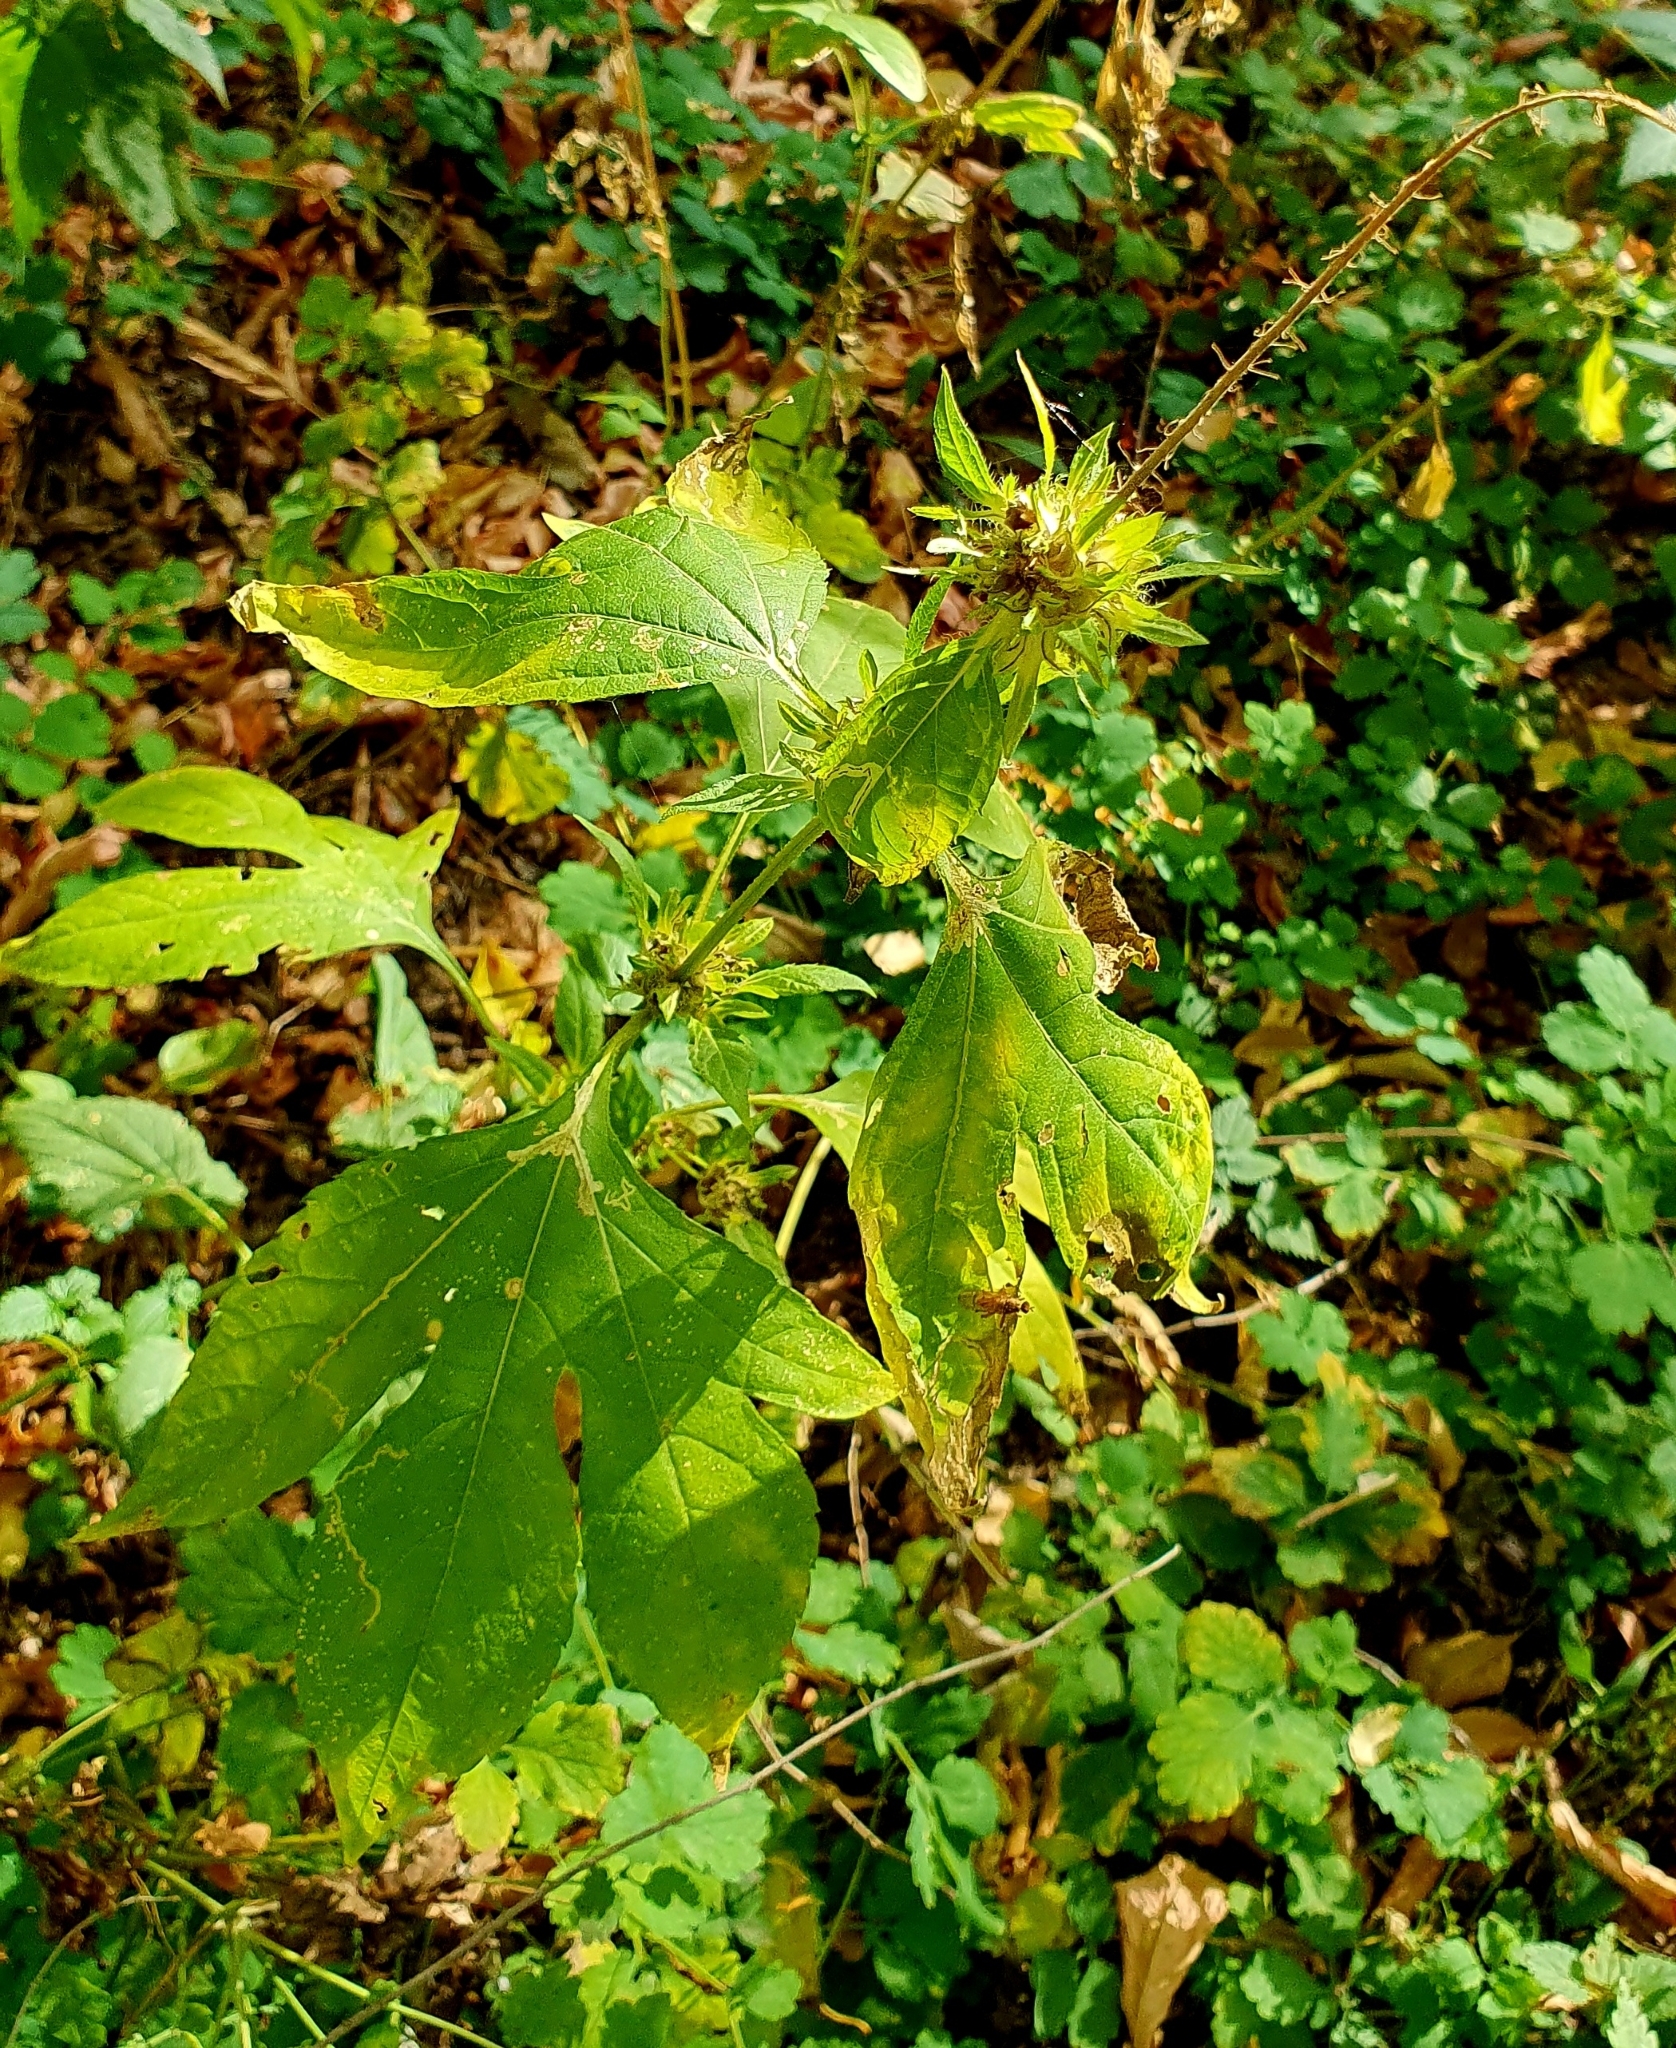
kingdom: Plantae
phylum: Tracheophyta
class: Magnoliopsida
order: Asterales
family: Asteraceae
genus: Ambrosia
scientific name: Ambrosia trifida
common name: Giant ragweed
